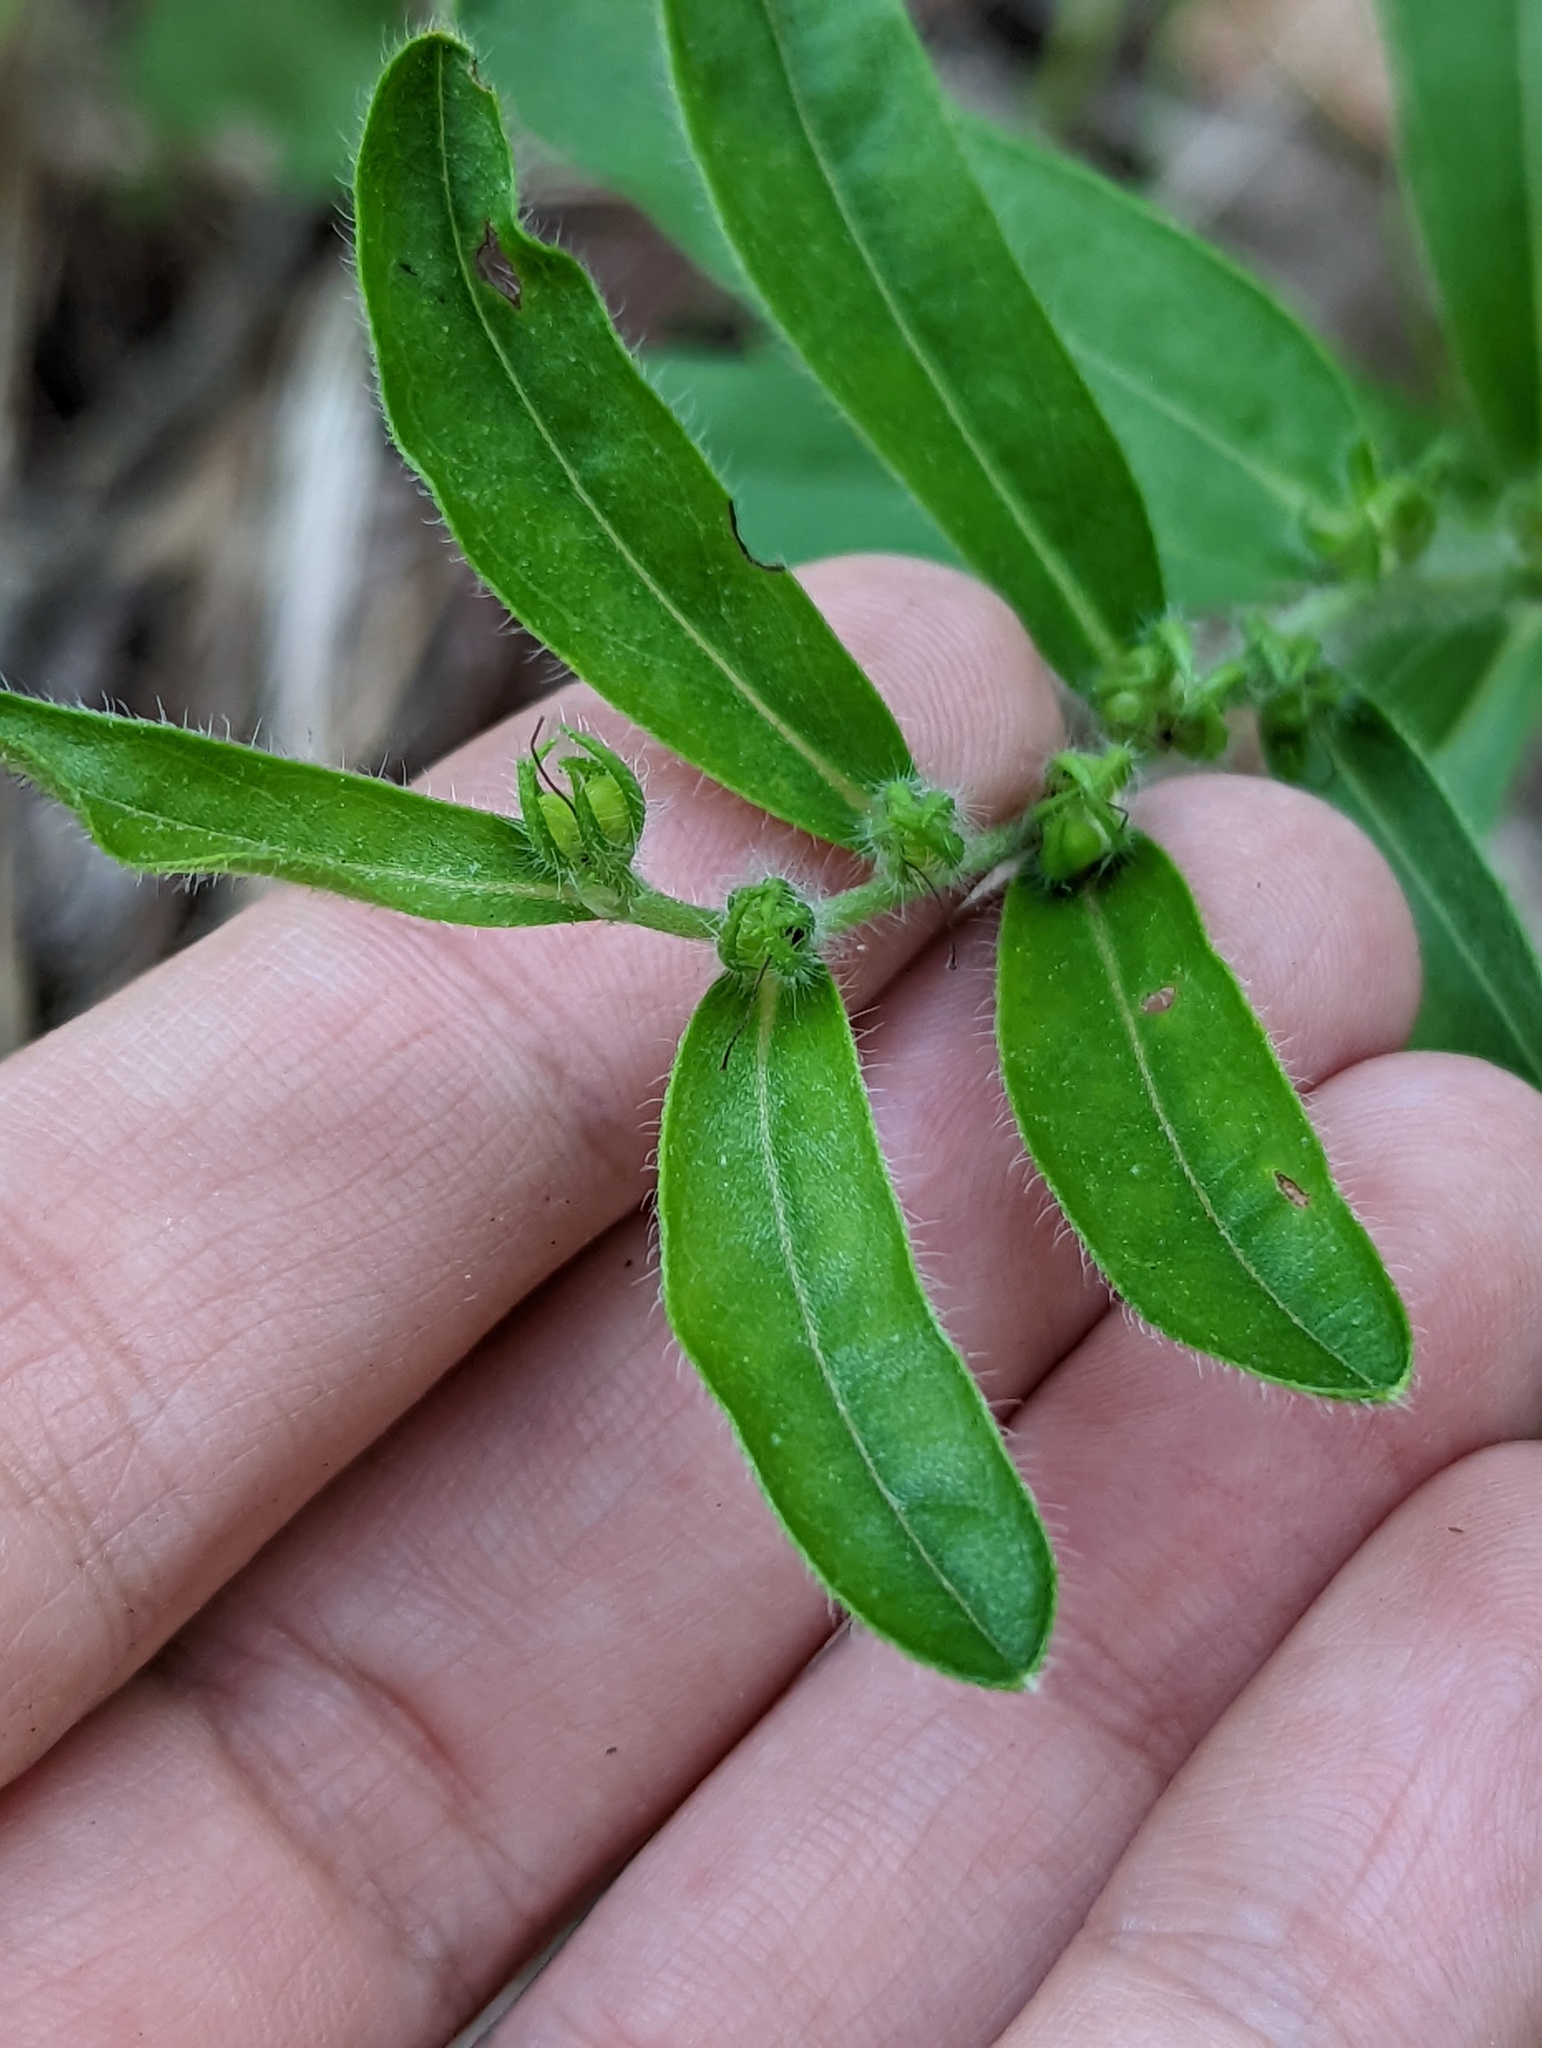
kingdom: Plantae
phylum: Tracheophyta
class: Magnoliopsida
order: Boraginales
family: Boraginaceae
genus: Lithospermum
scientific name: Lithospermum canescens
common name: Hoary puccoon
